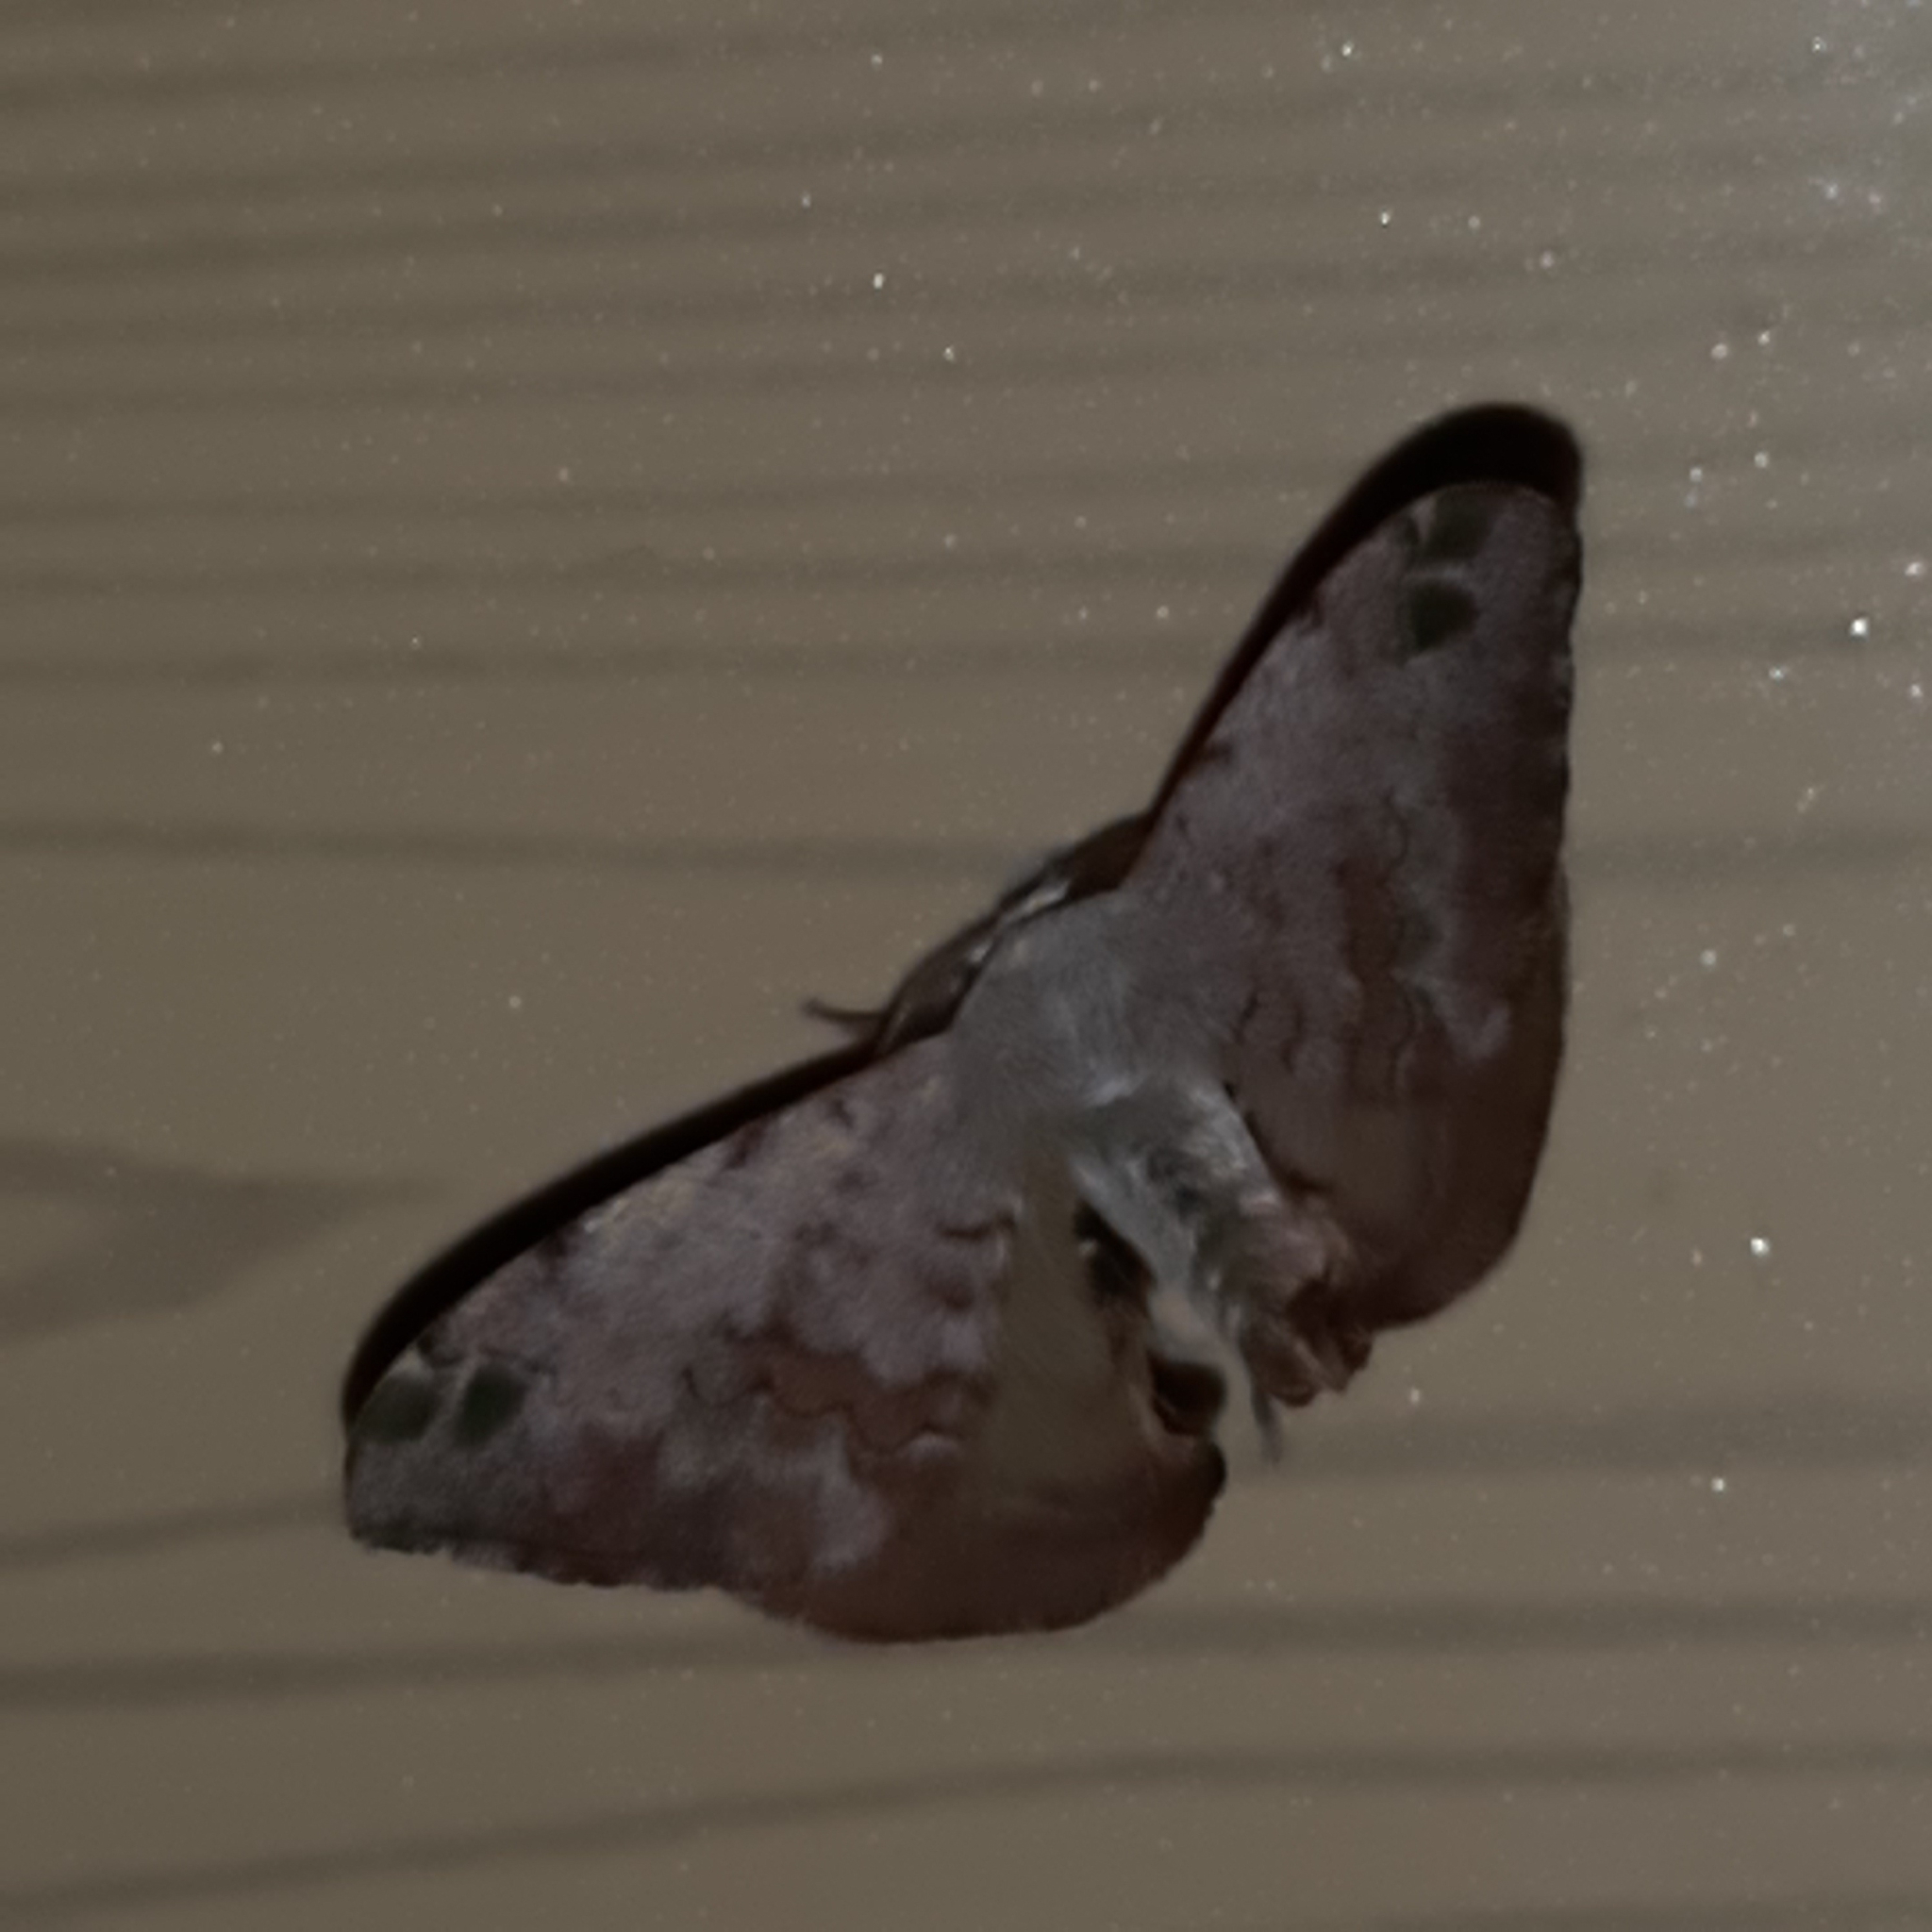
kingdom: Animalia
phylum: Arthropoda
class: Insecta
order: Lepidoptera
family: Bombycidae
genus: Anticla
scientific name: Anticla antica
